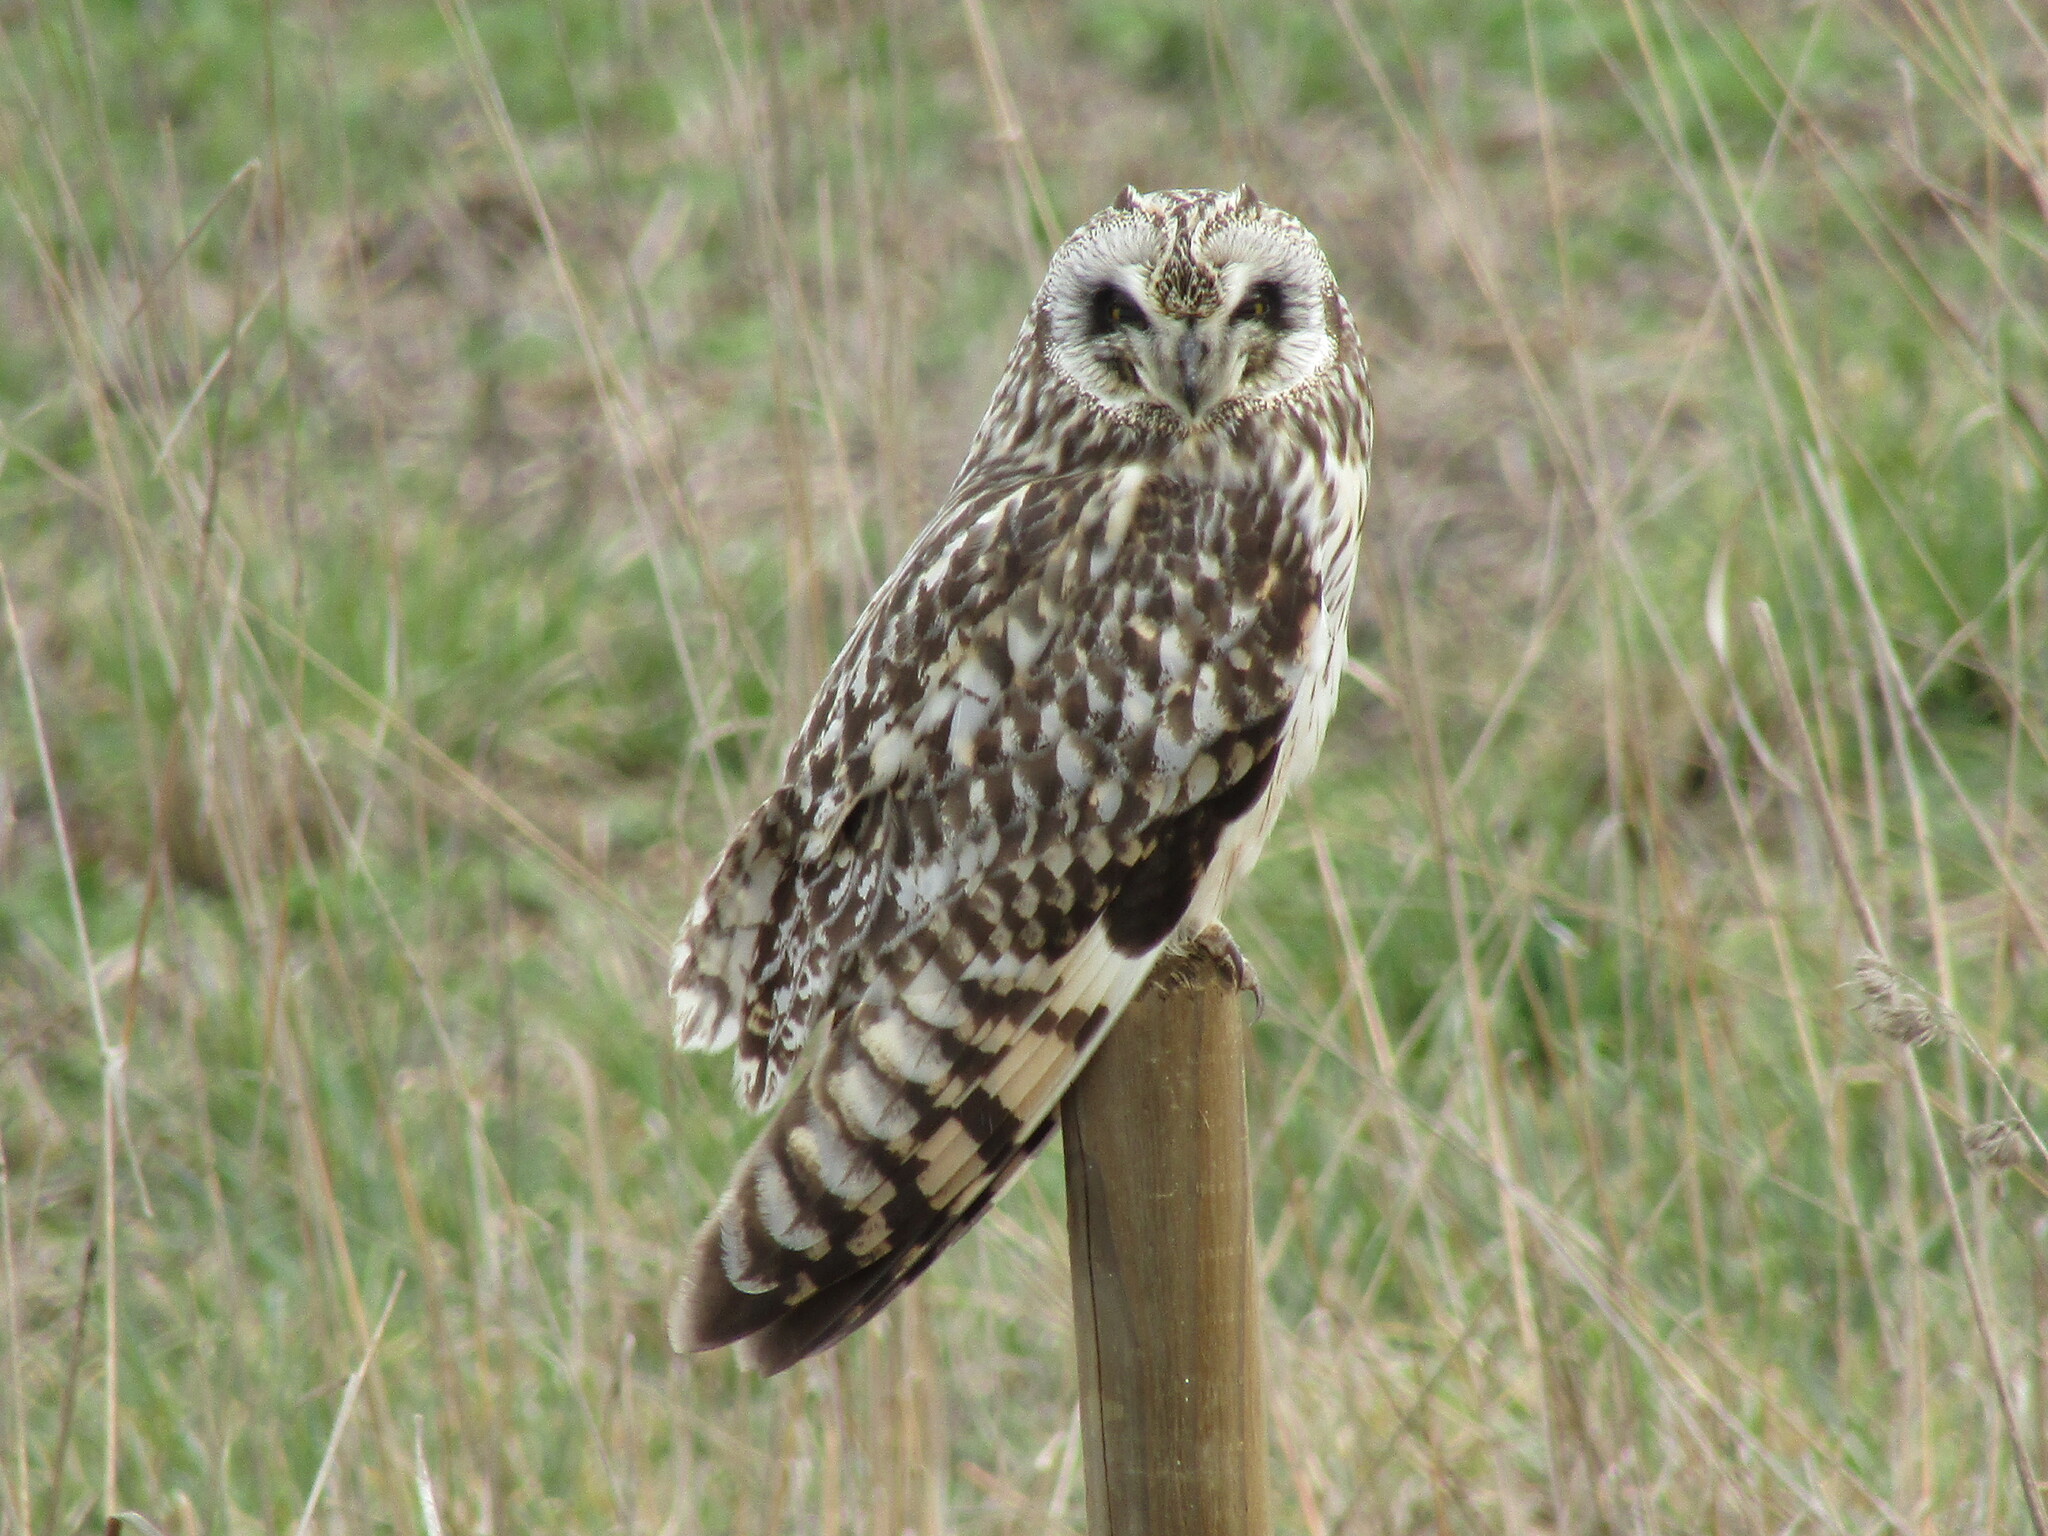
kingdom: Animalia
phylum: Chordata
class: Aves
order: Strigiformes
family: Strigidae
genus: Asio
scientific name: Asio flammeus
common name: Short-eared owl
